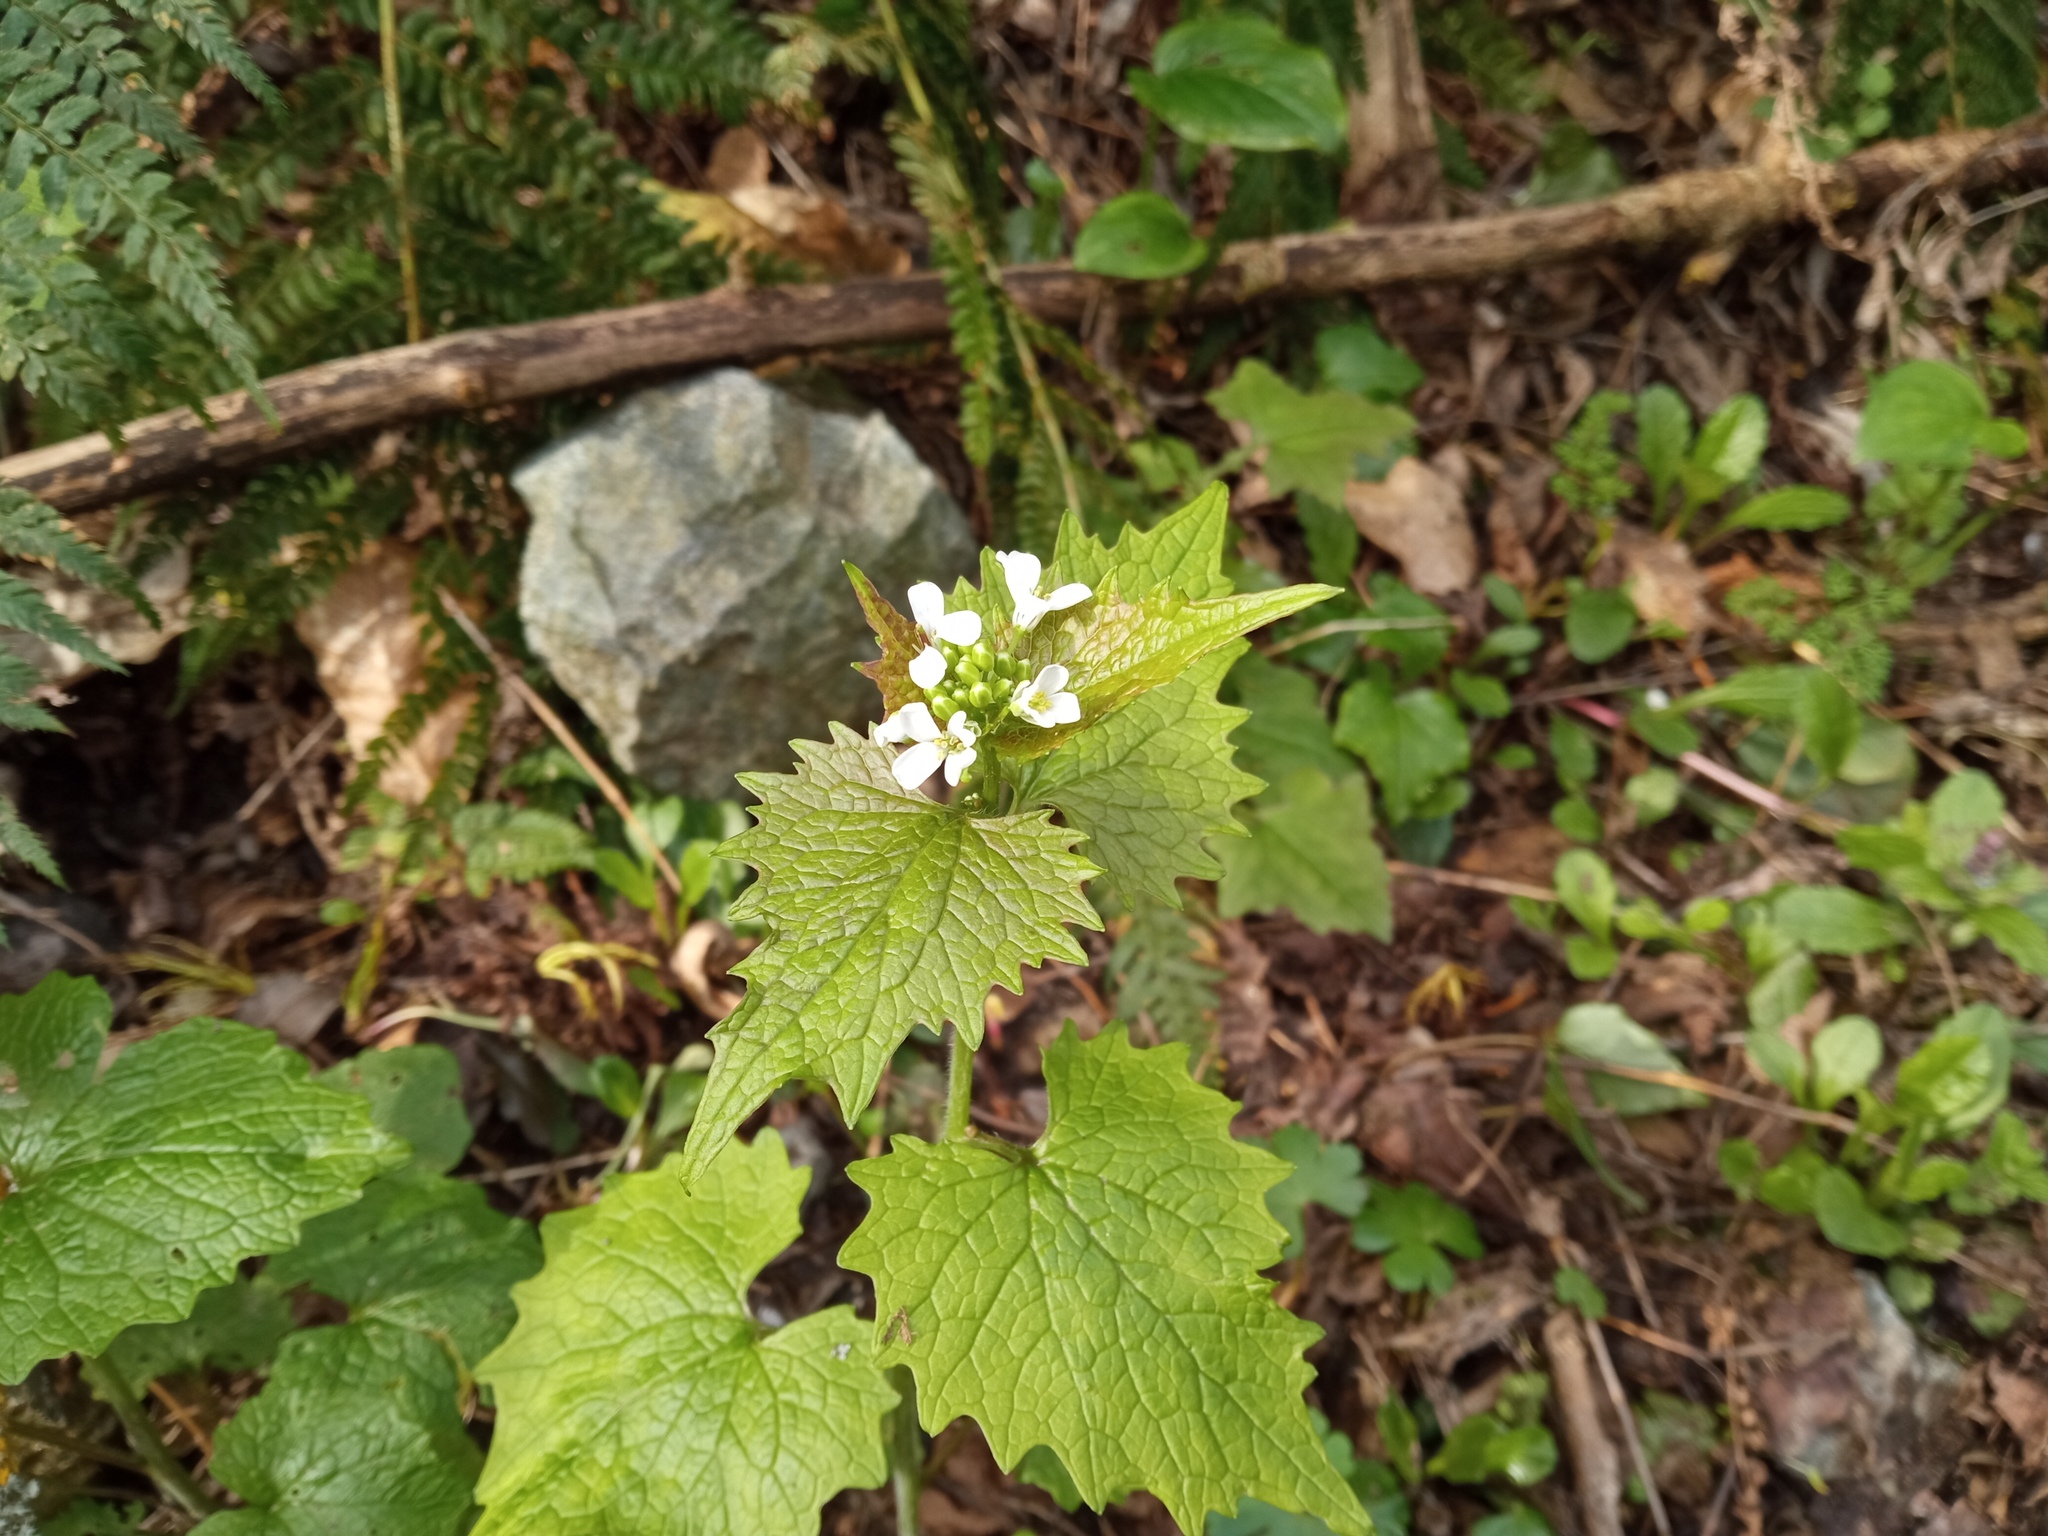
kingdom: Plantae
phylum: Tracheophyta
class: Magnoliopsida
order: Brassicales
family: Brassicaceae
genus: Alliaria
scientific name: Alliaria petiolata
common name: Garlic mustard
